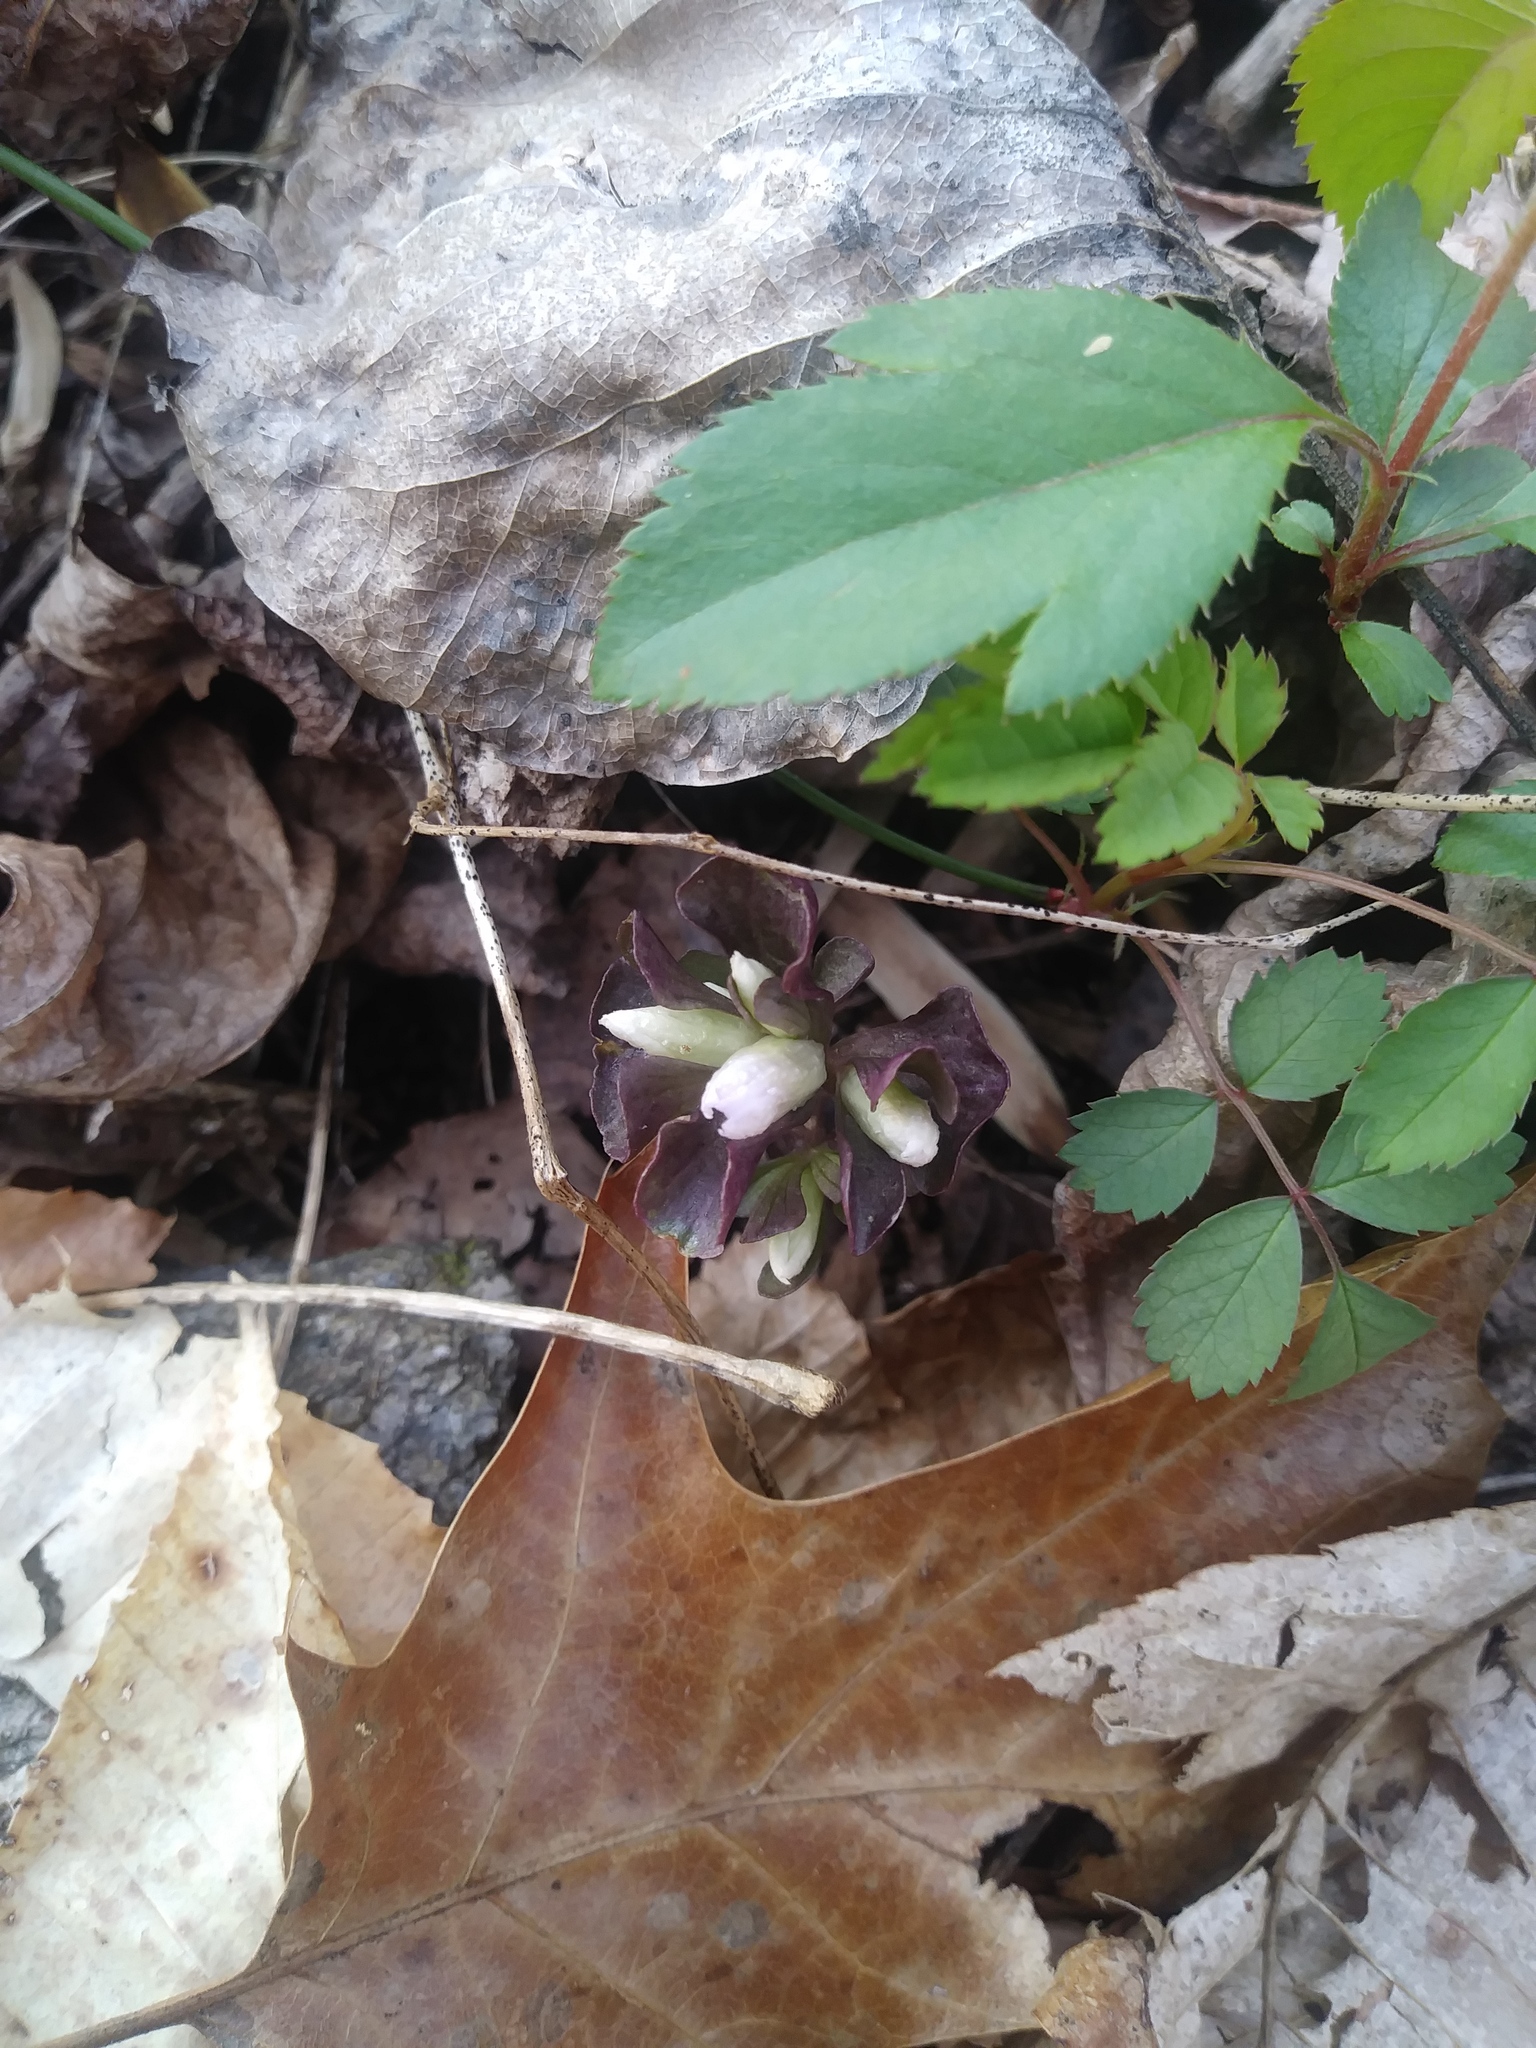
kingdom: Plantae
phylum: Tracheophyta
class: Magnoliopsida
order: Gentianales
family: Gentianaceae
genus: Obolaria
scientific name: Obolaria virginica
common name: Pennywort
